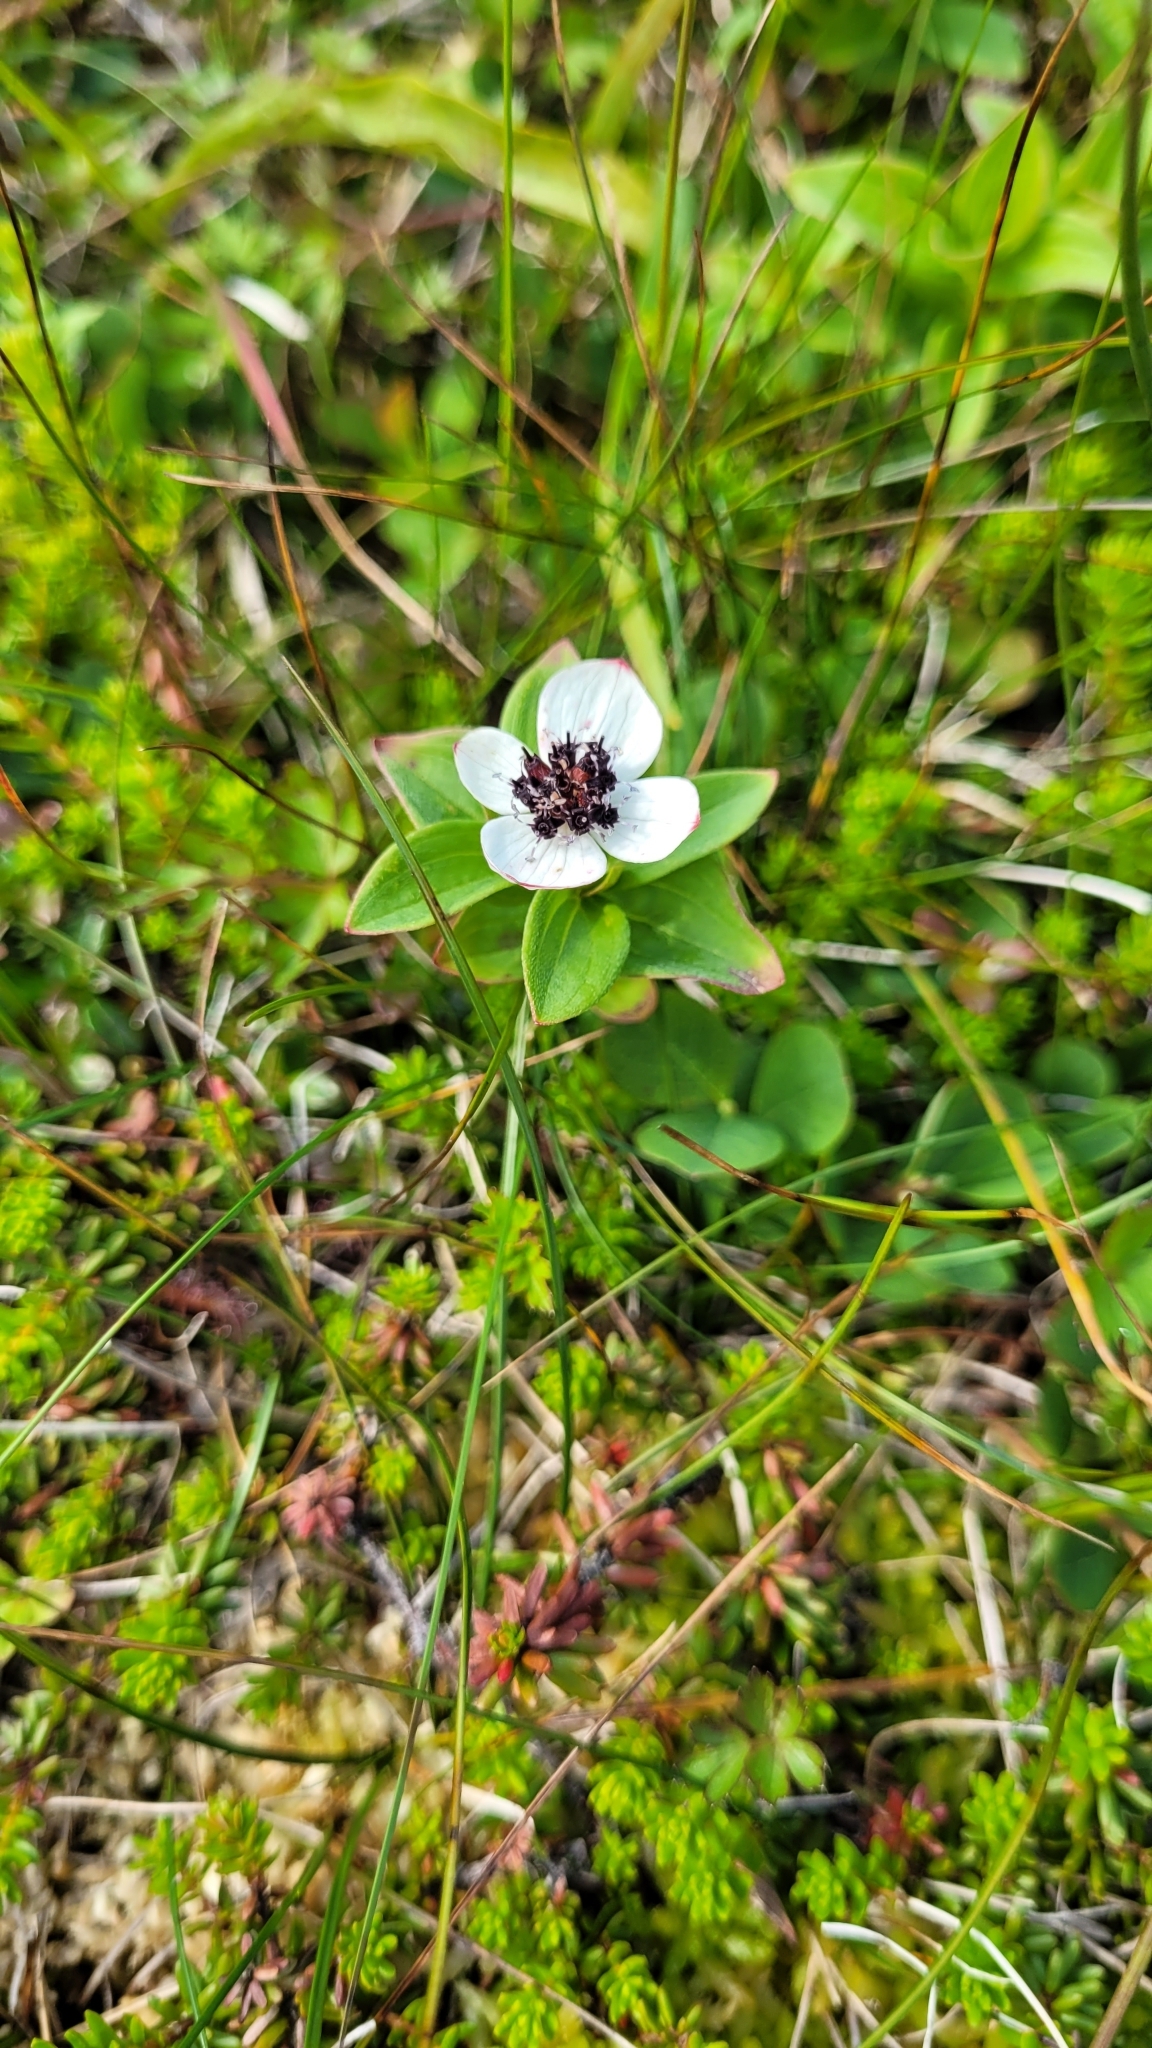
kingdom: Plantae
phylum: Tracheophyta
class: Magnoliopsida
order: Cornales
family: Cornaceae
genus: Cornus
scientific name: Cornus suecica
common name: Dwarf cornel
